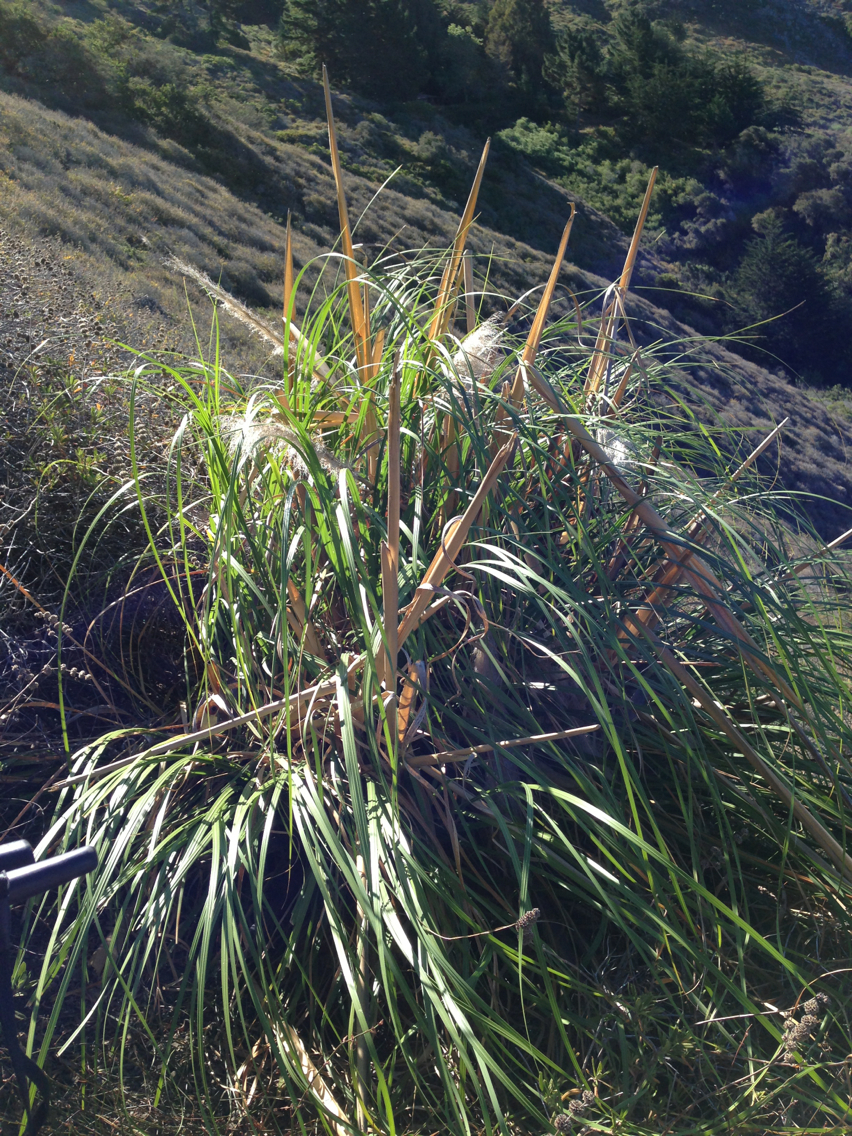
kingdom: Plantae
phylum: Tracheophyta
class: Liliopsida
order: Poales
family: Poaceae
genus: Cortaderia
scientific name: Cortaderia jubata
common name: Purple pampas grass
